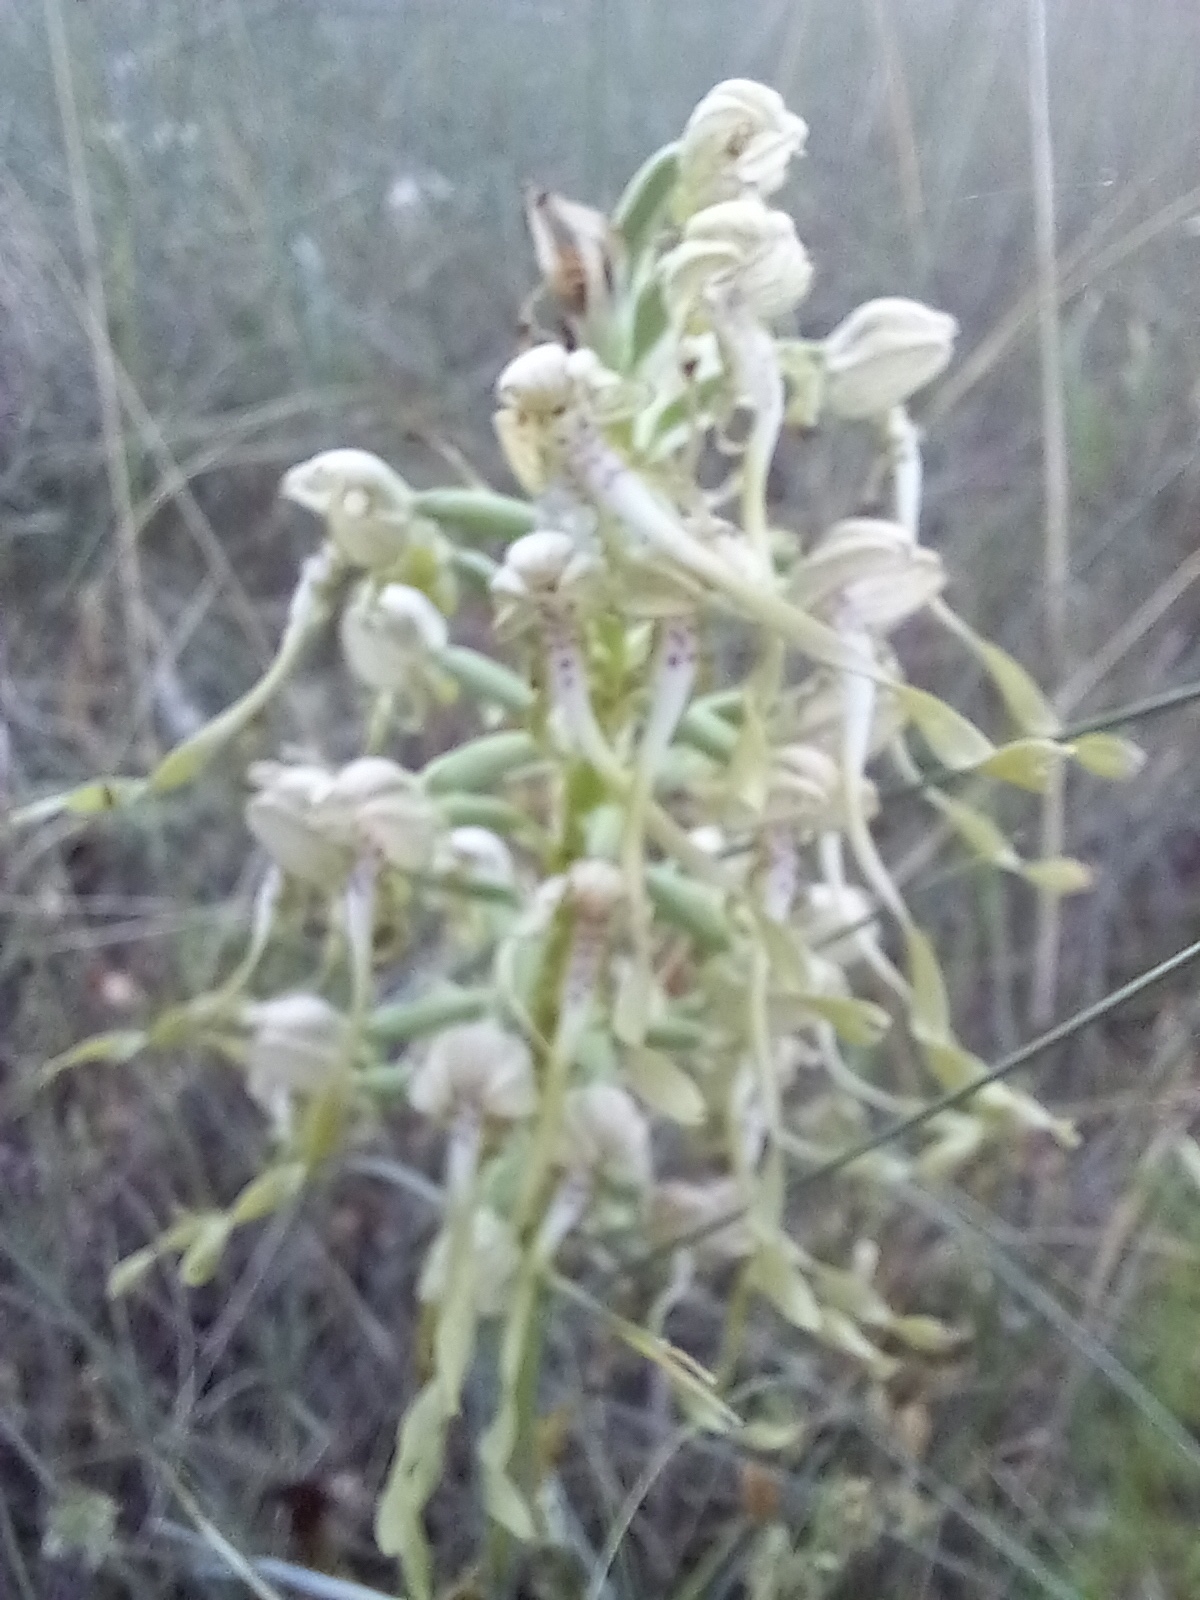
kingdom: Plantae
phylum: Tracheophyta
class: Liliopsida
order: Asparagales
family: Orchidaceae
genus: Himantoglossum
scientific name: Himantoglossum hircinum
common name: Lizard orchid
